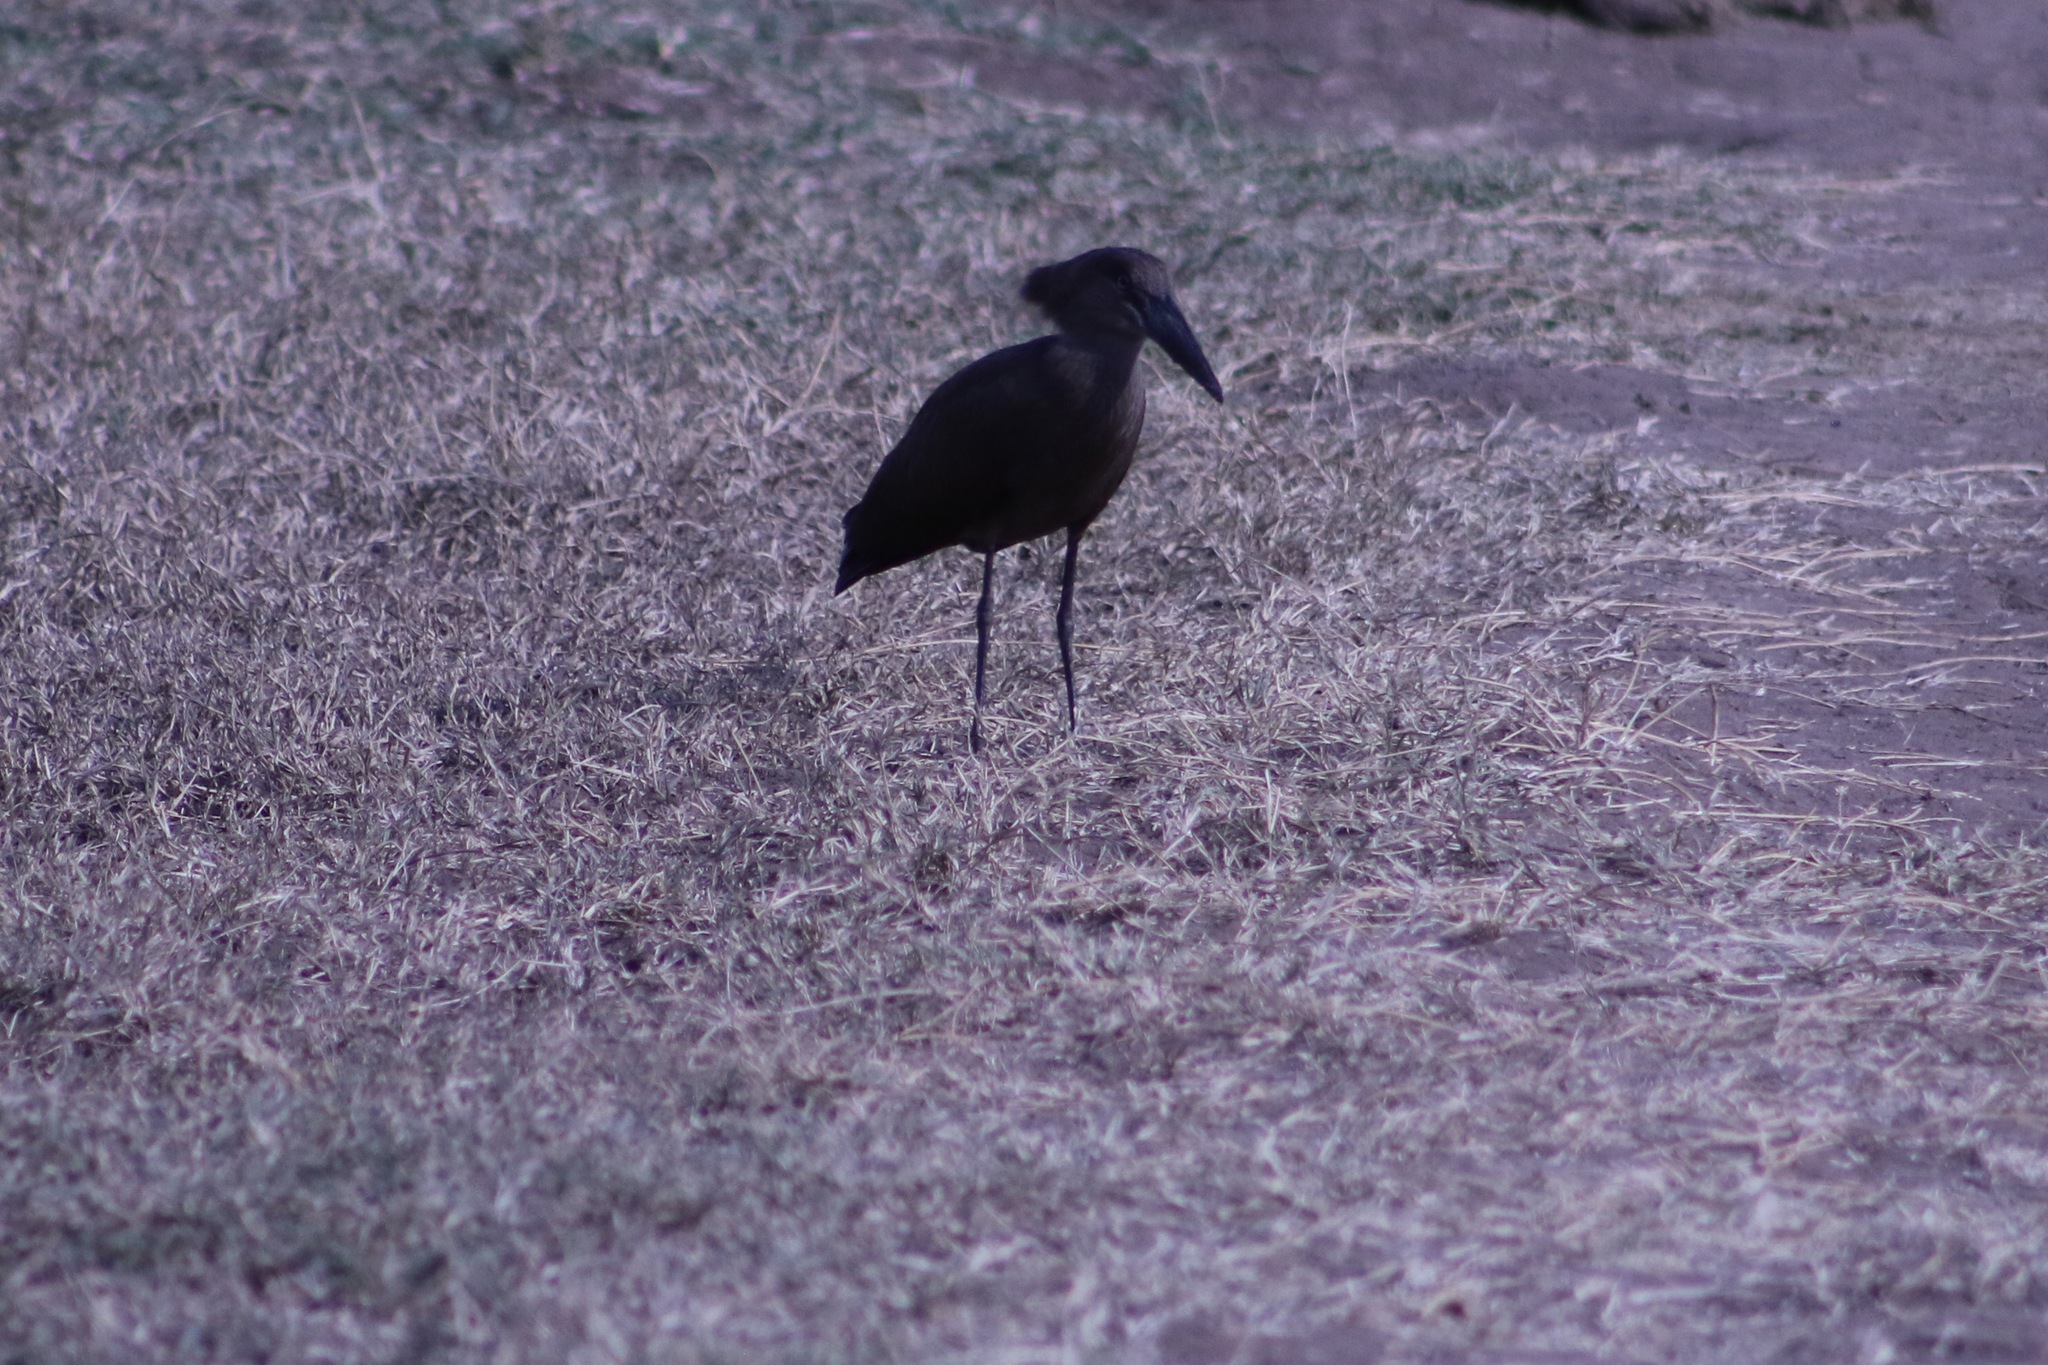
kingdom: Animalia
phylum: Chordata
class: Aves
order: Pelecaniformes
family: Scopidae
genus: Scopus
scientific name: Scopus umbretta
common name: Hamerkop
